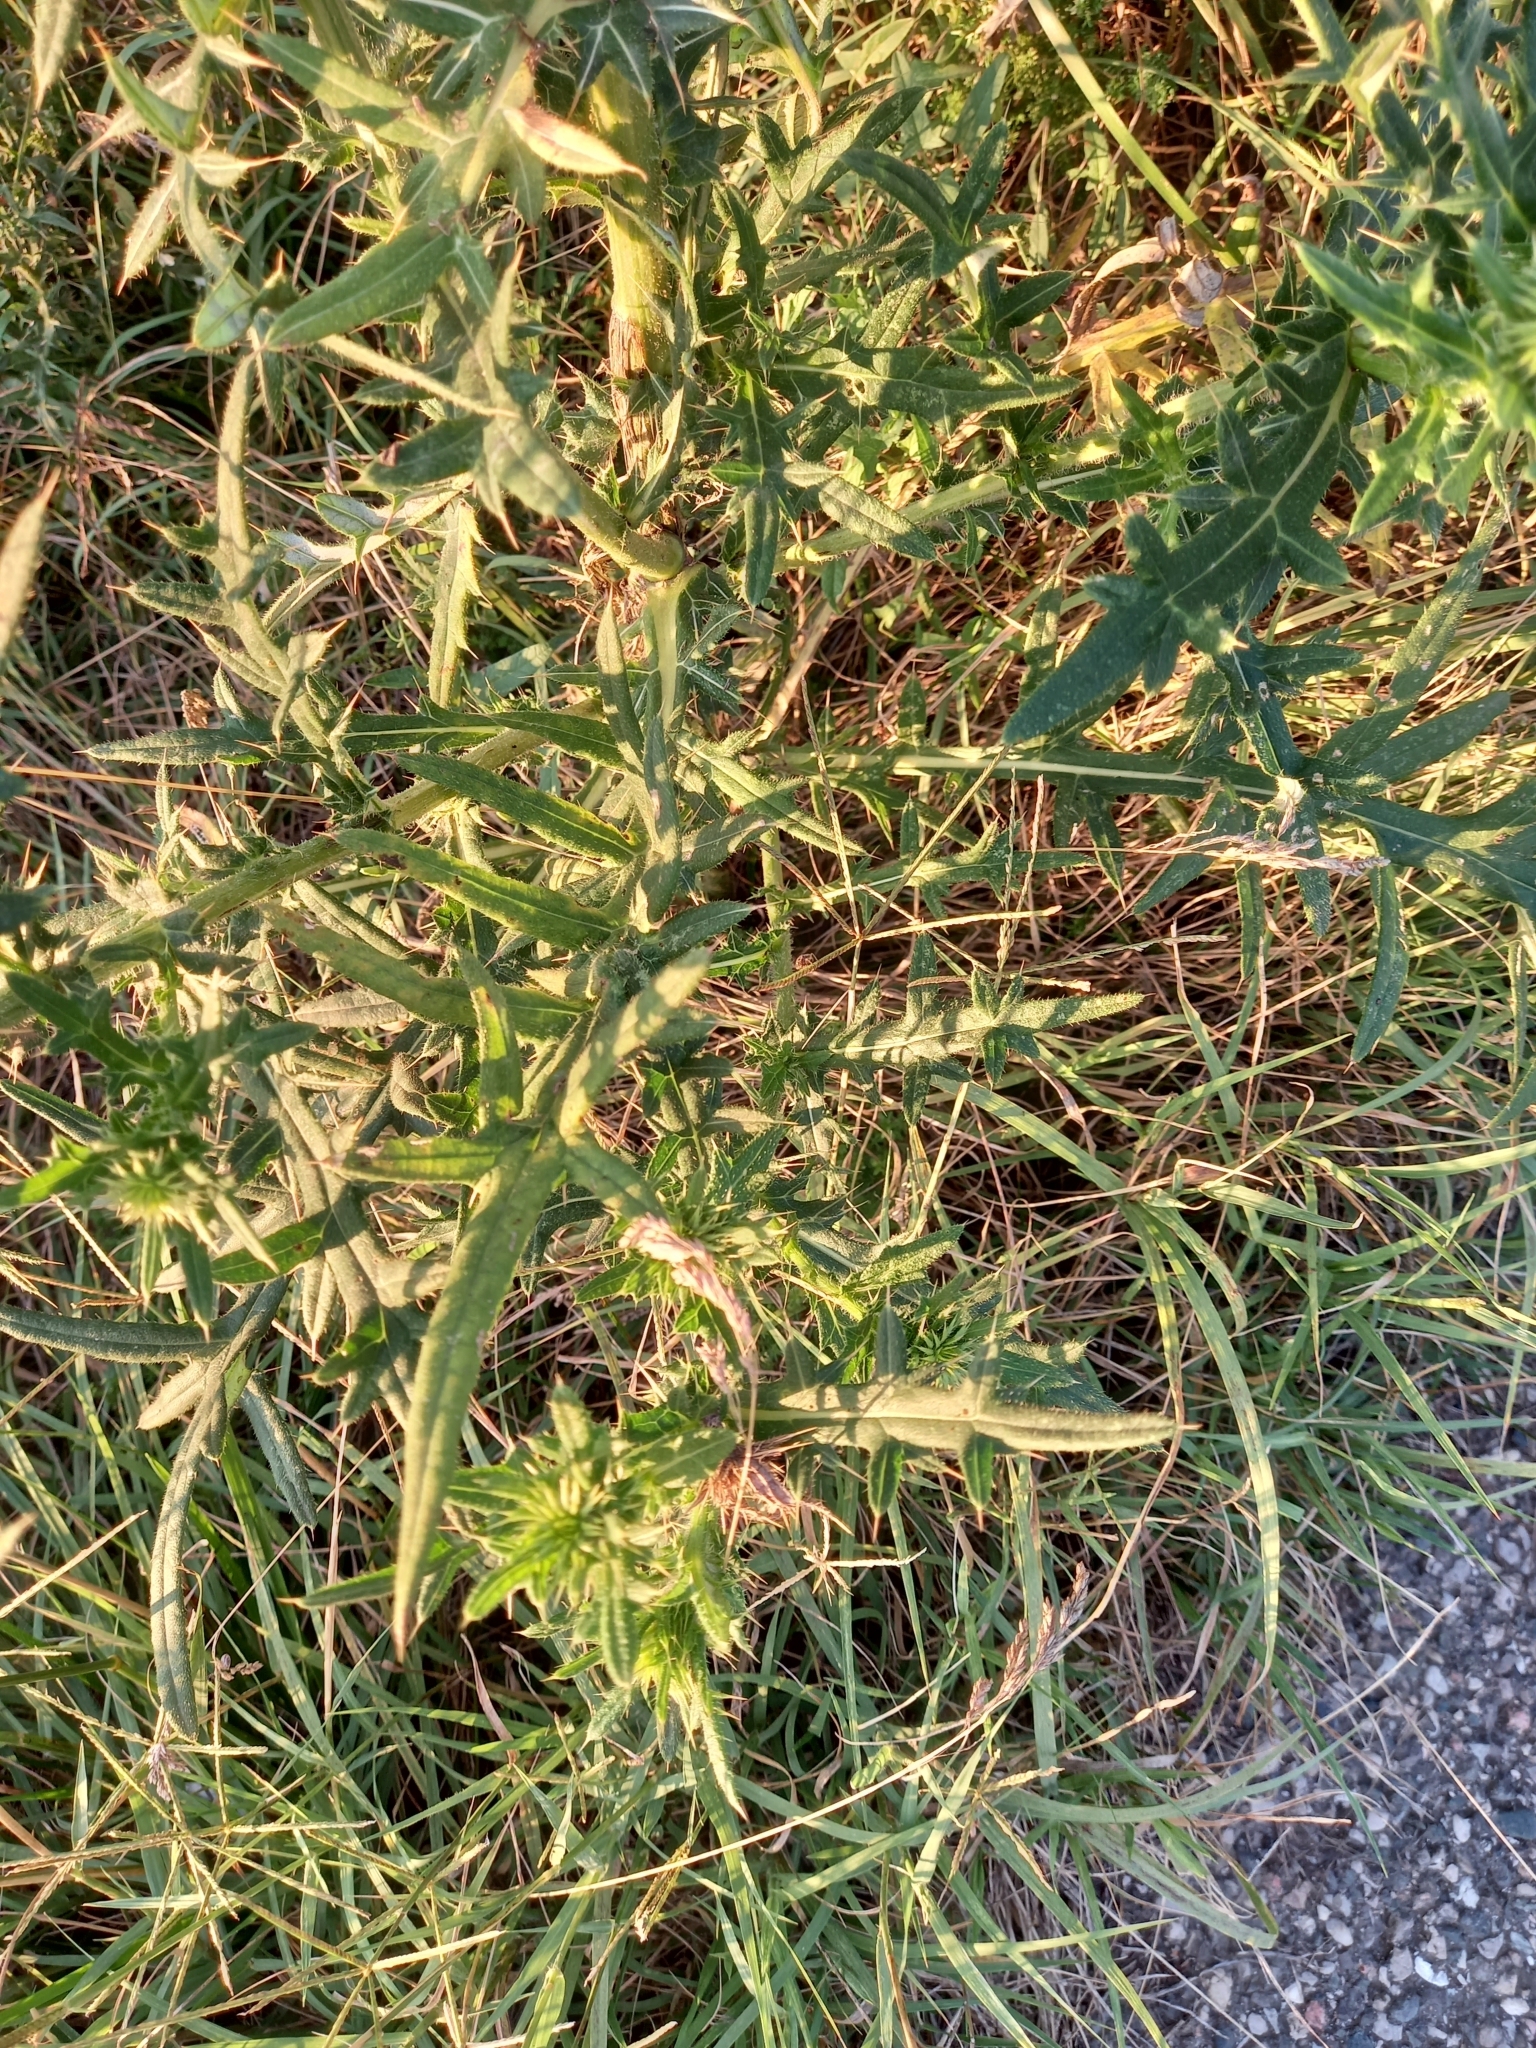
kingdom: Plantae
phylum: Tracheophyta
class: Magnoliopsida
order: Asterales
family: Asteraceae
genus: Lophiolepis
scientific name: Lophiolepis ciliata
